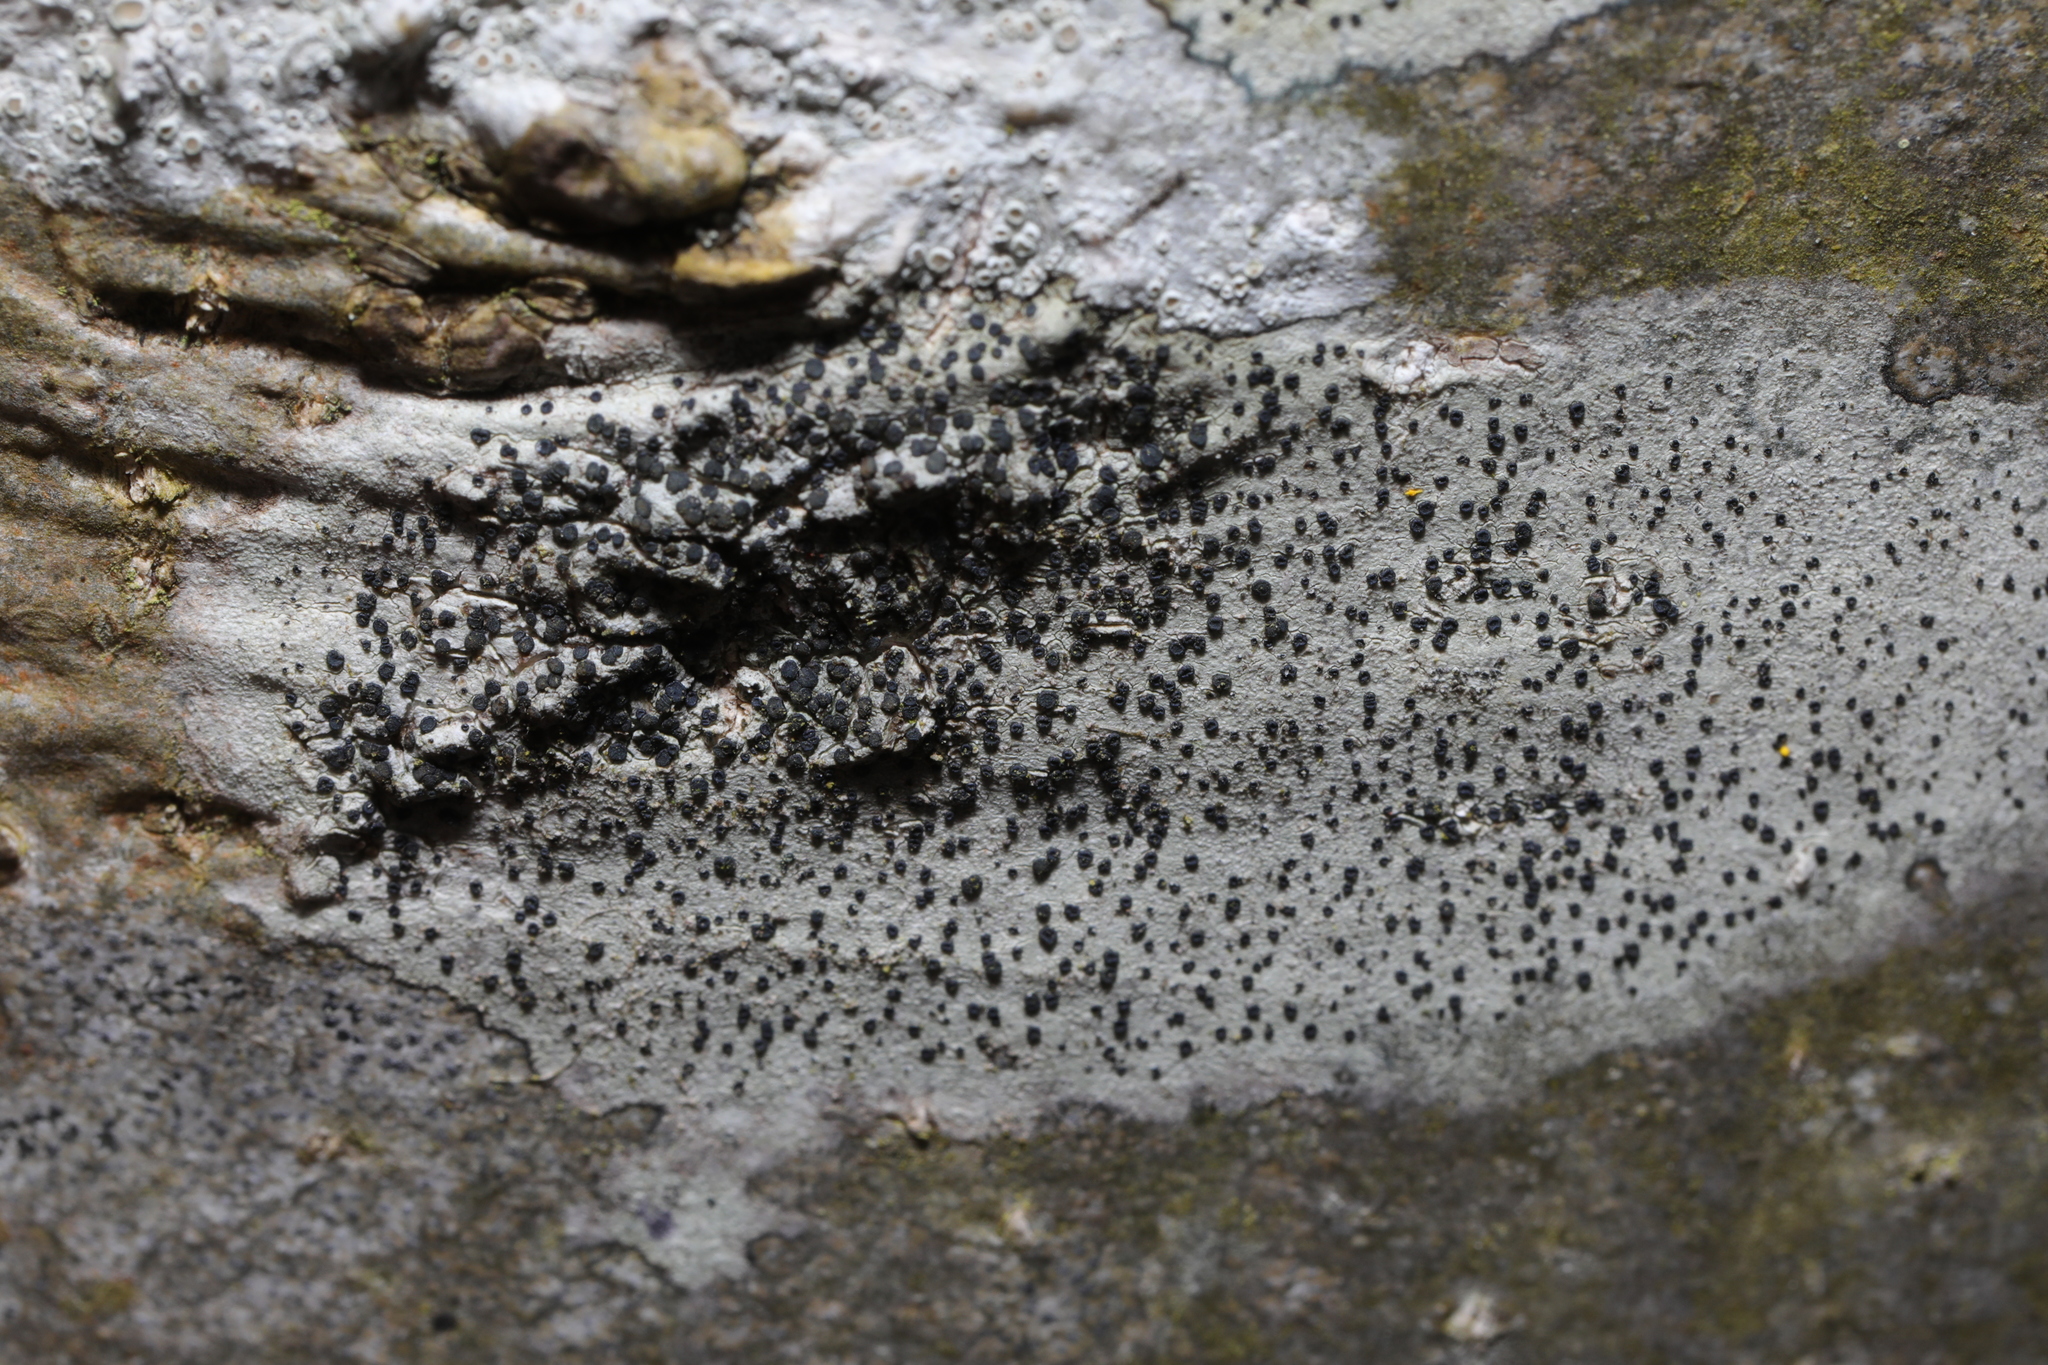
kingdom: Fungi
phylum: Ascomycota
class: Lecanoromycetes
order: Lecanorales
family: Lecanoraceae
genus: Lecidella
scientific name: Lecidella elaeochroma
